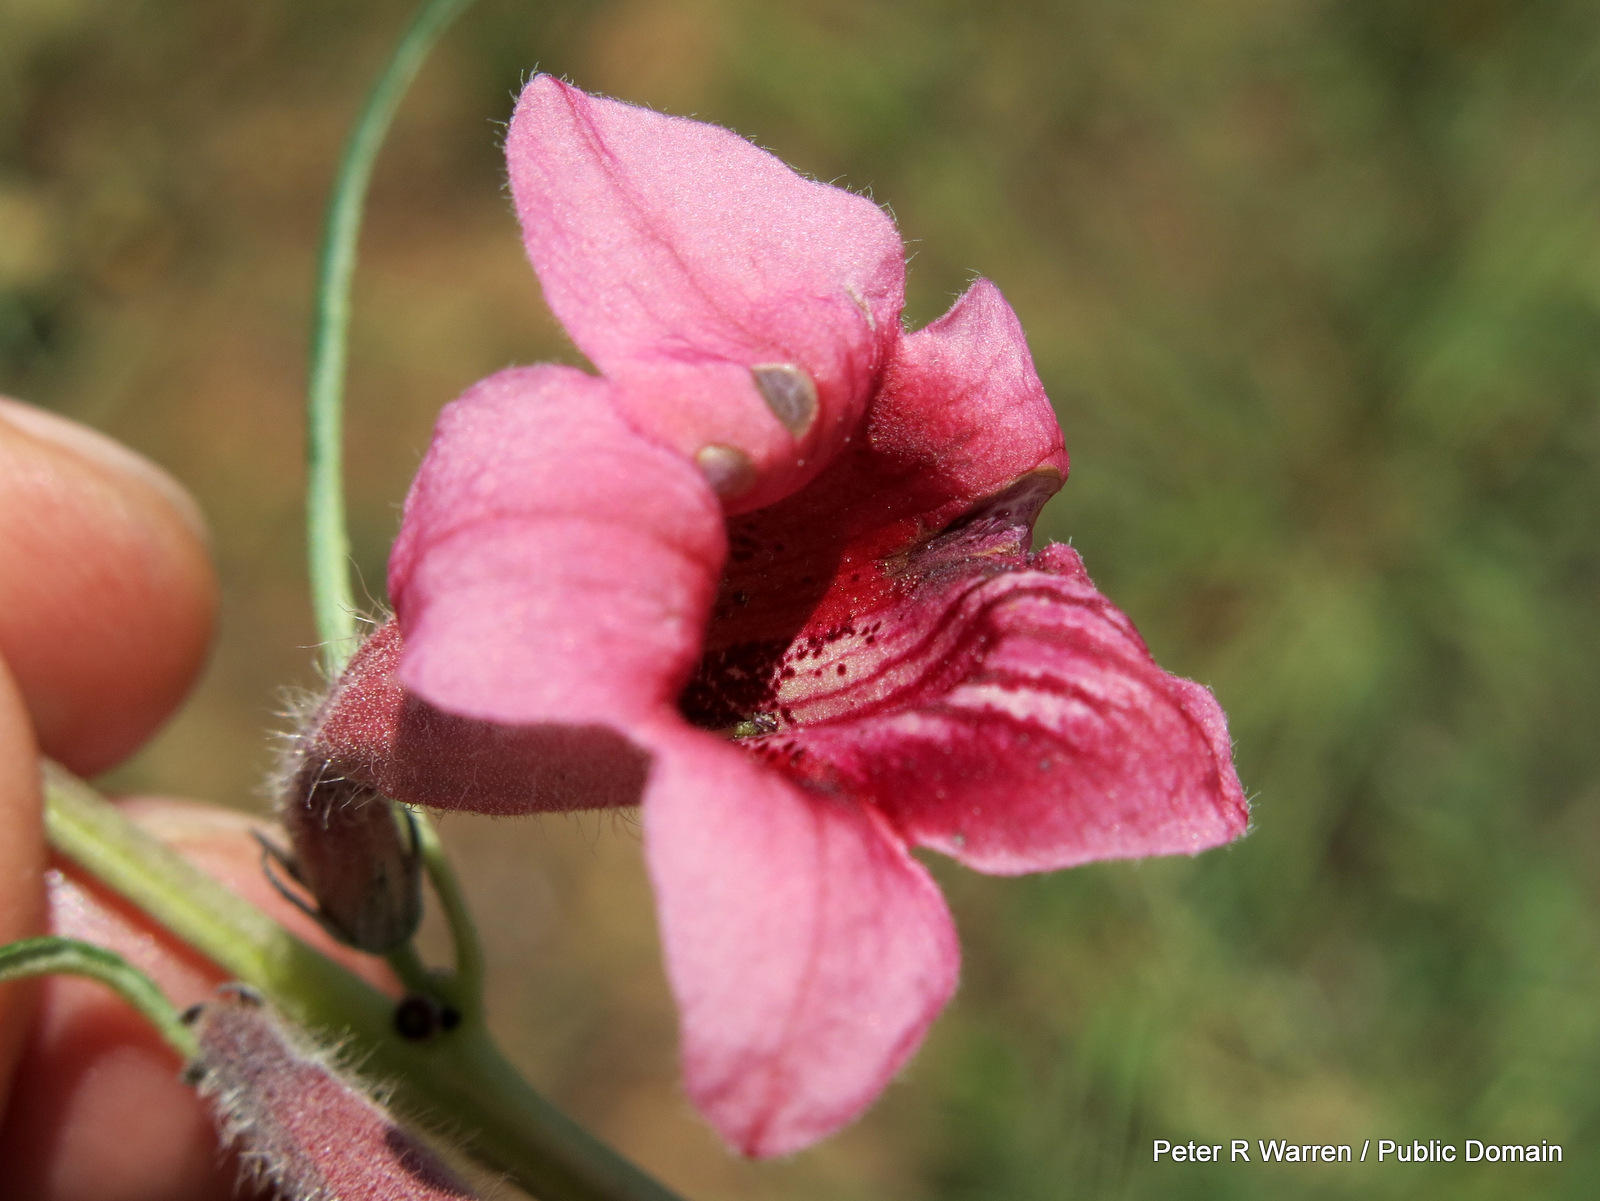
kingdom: Plantae
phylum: Tracheophyta
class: Magnoliopsida
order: Lamiales
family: Pedaliaceae
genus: Sesamum
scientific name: Sesamum alatum
